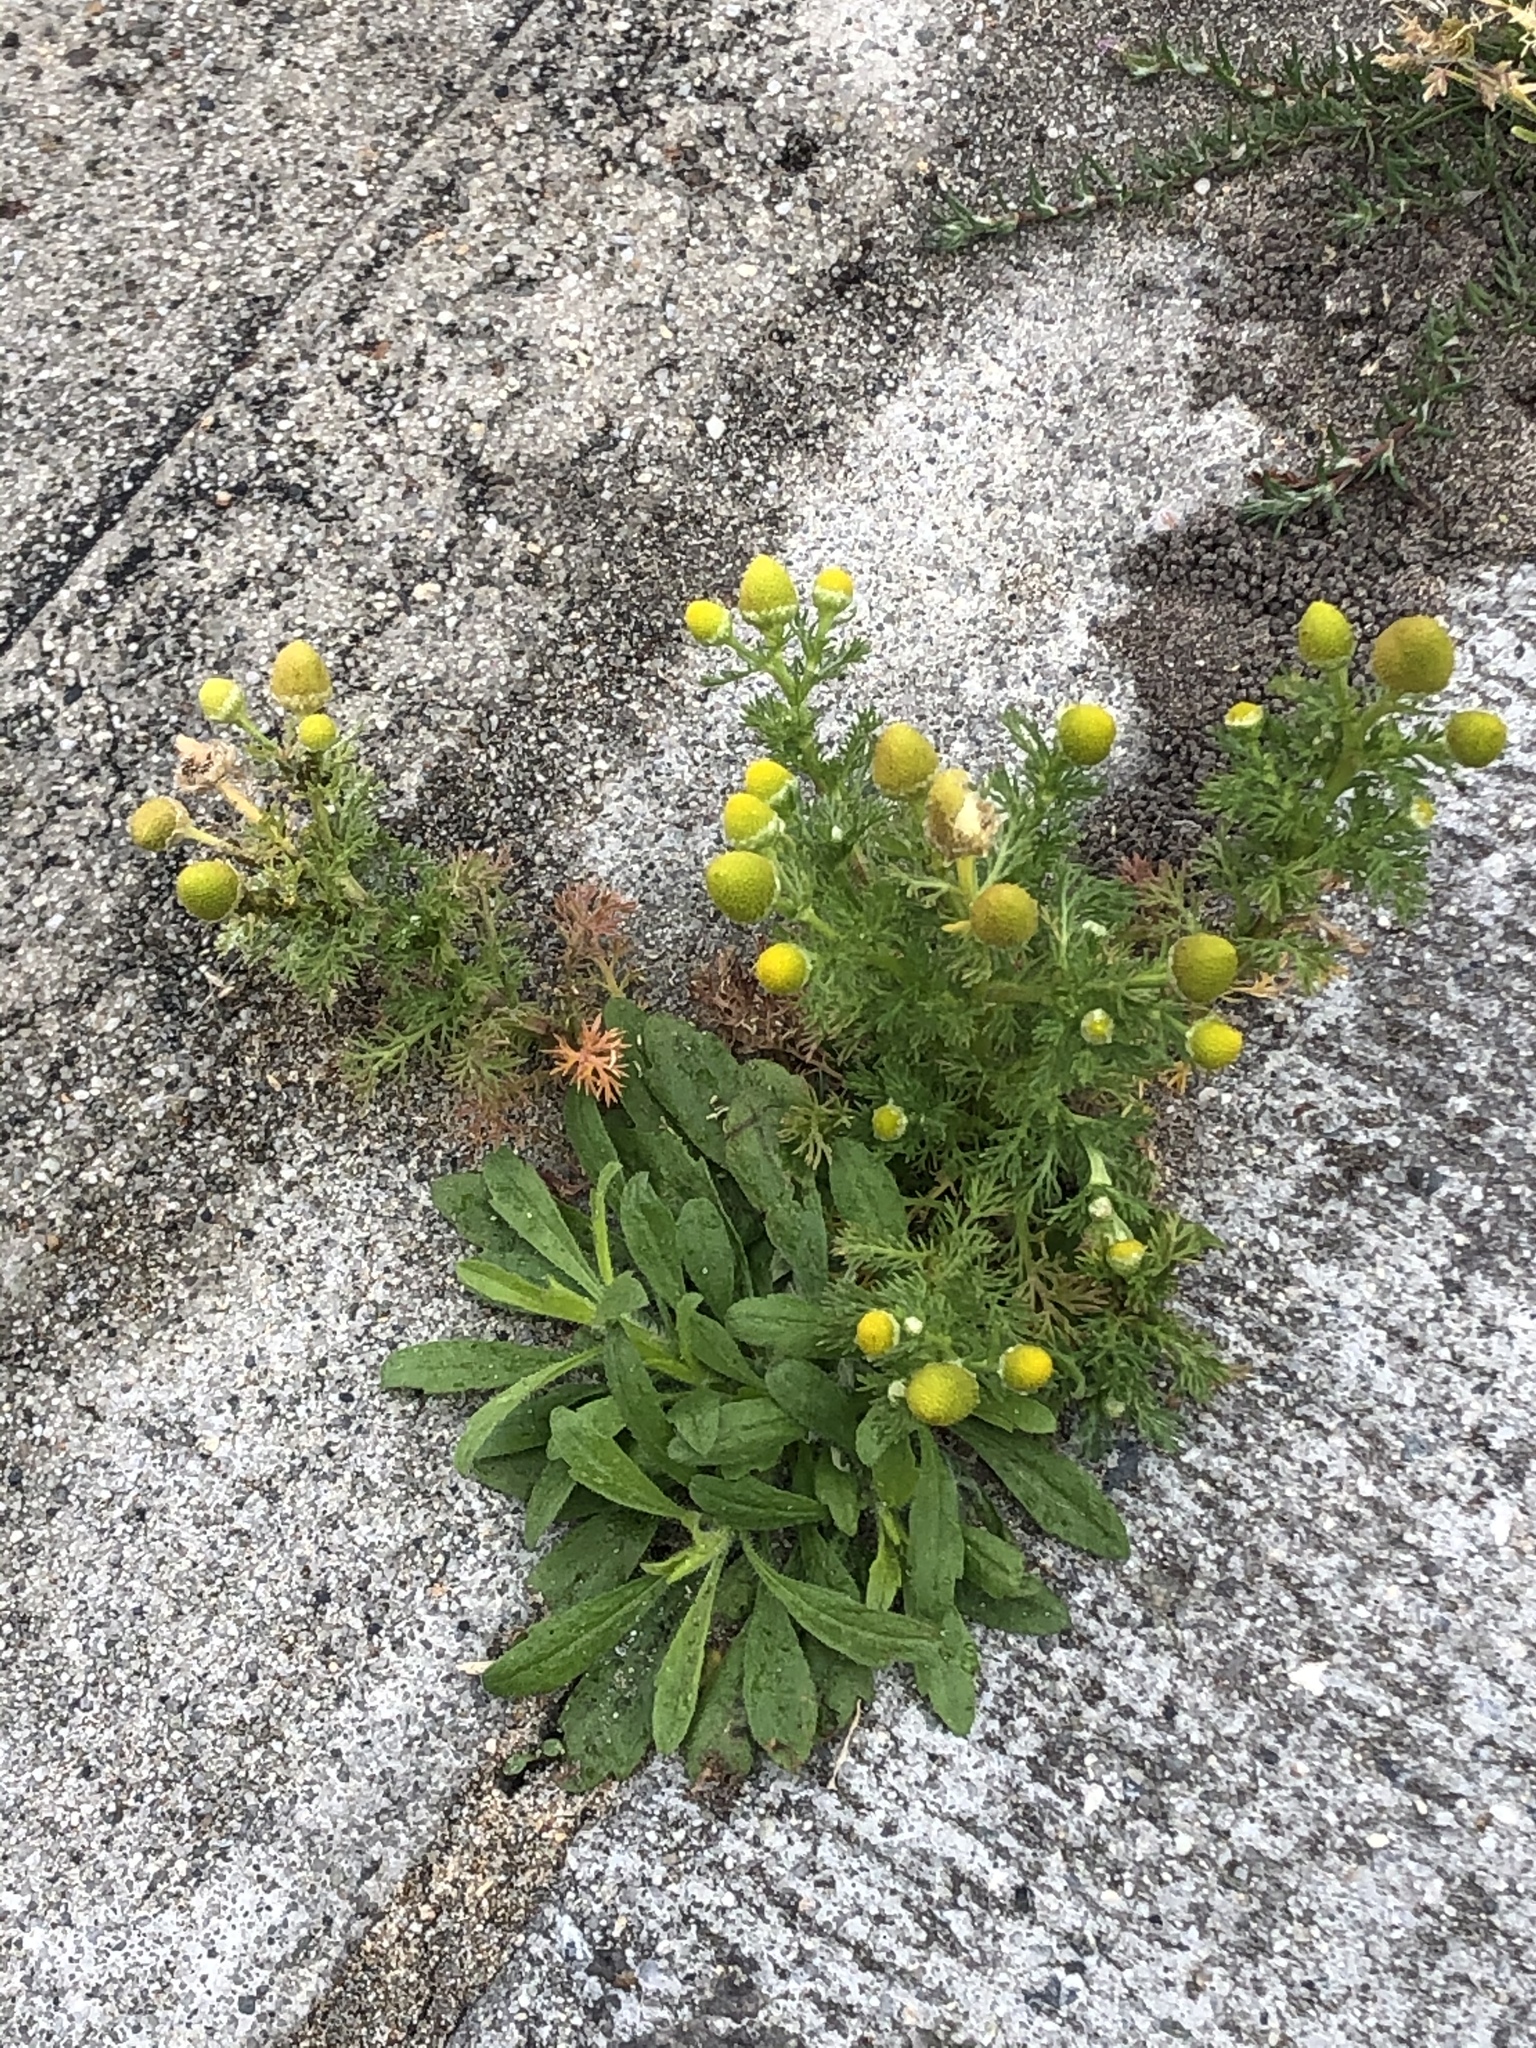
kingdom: Plantae
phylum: Tracheophyta
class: Magnoliopsida
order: Asterales
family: Asteraceae
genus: Matricaria
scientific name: Matricaria discoidea
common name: Disc mayweed
